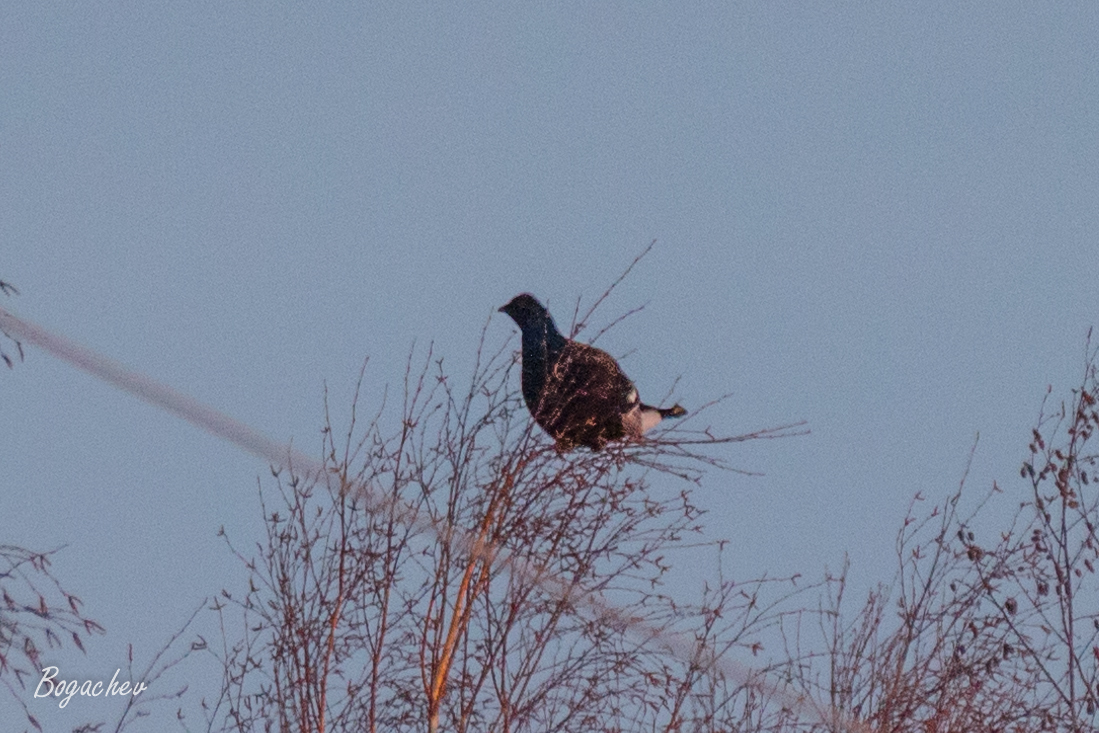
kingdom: Animalia
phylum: Chordata
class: Aves
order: Galliformes
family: Phasianidae
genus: Lyrurus
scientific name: Lyrurus tetrix
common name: Black grouse
